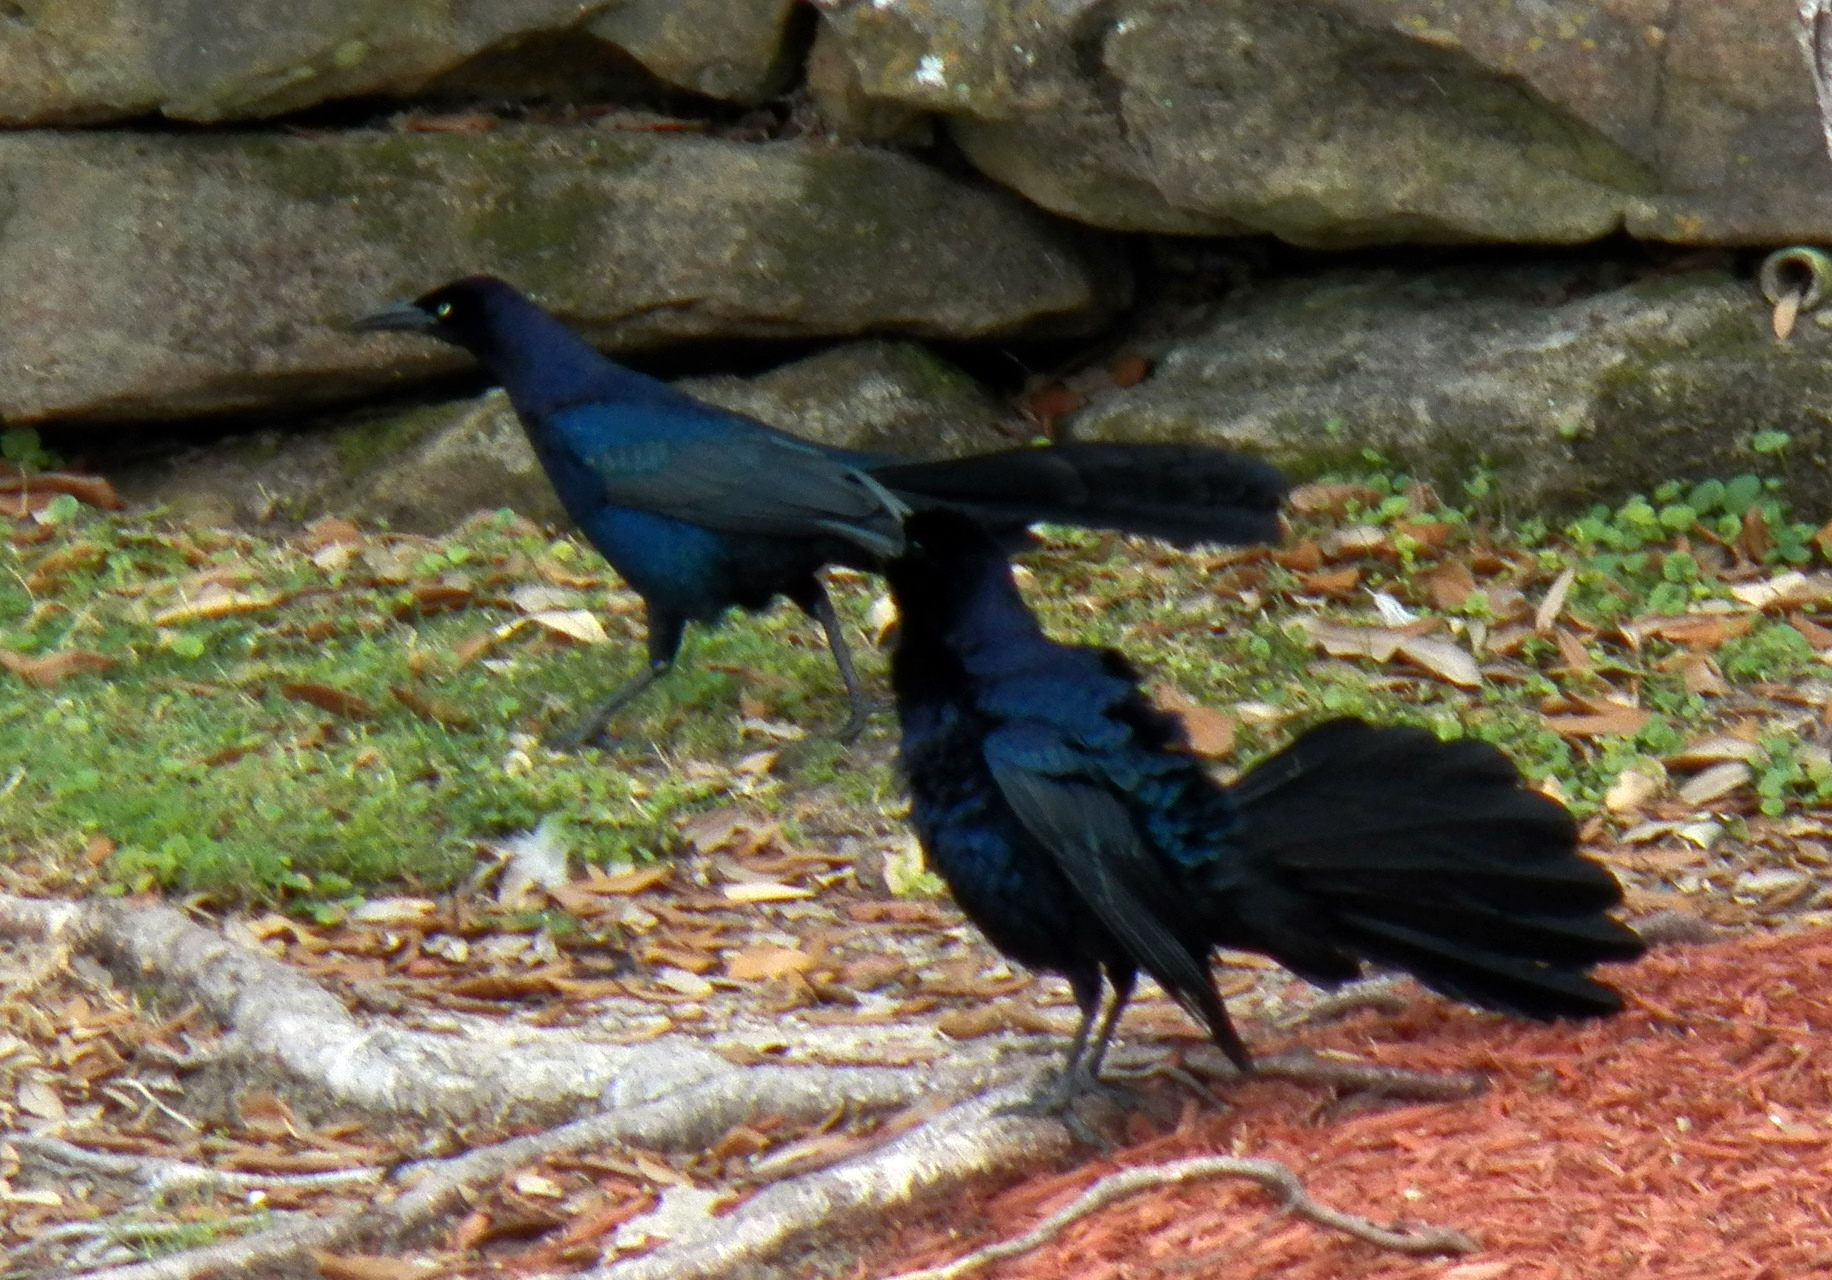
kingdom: Animalia
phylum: Chordata
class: Aves
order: Passeriformes
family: Icteridae
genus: Quiscalus
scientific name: Quiscalus mexicanus
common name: Great-tailed grackle
